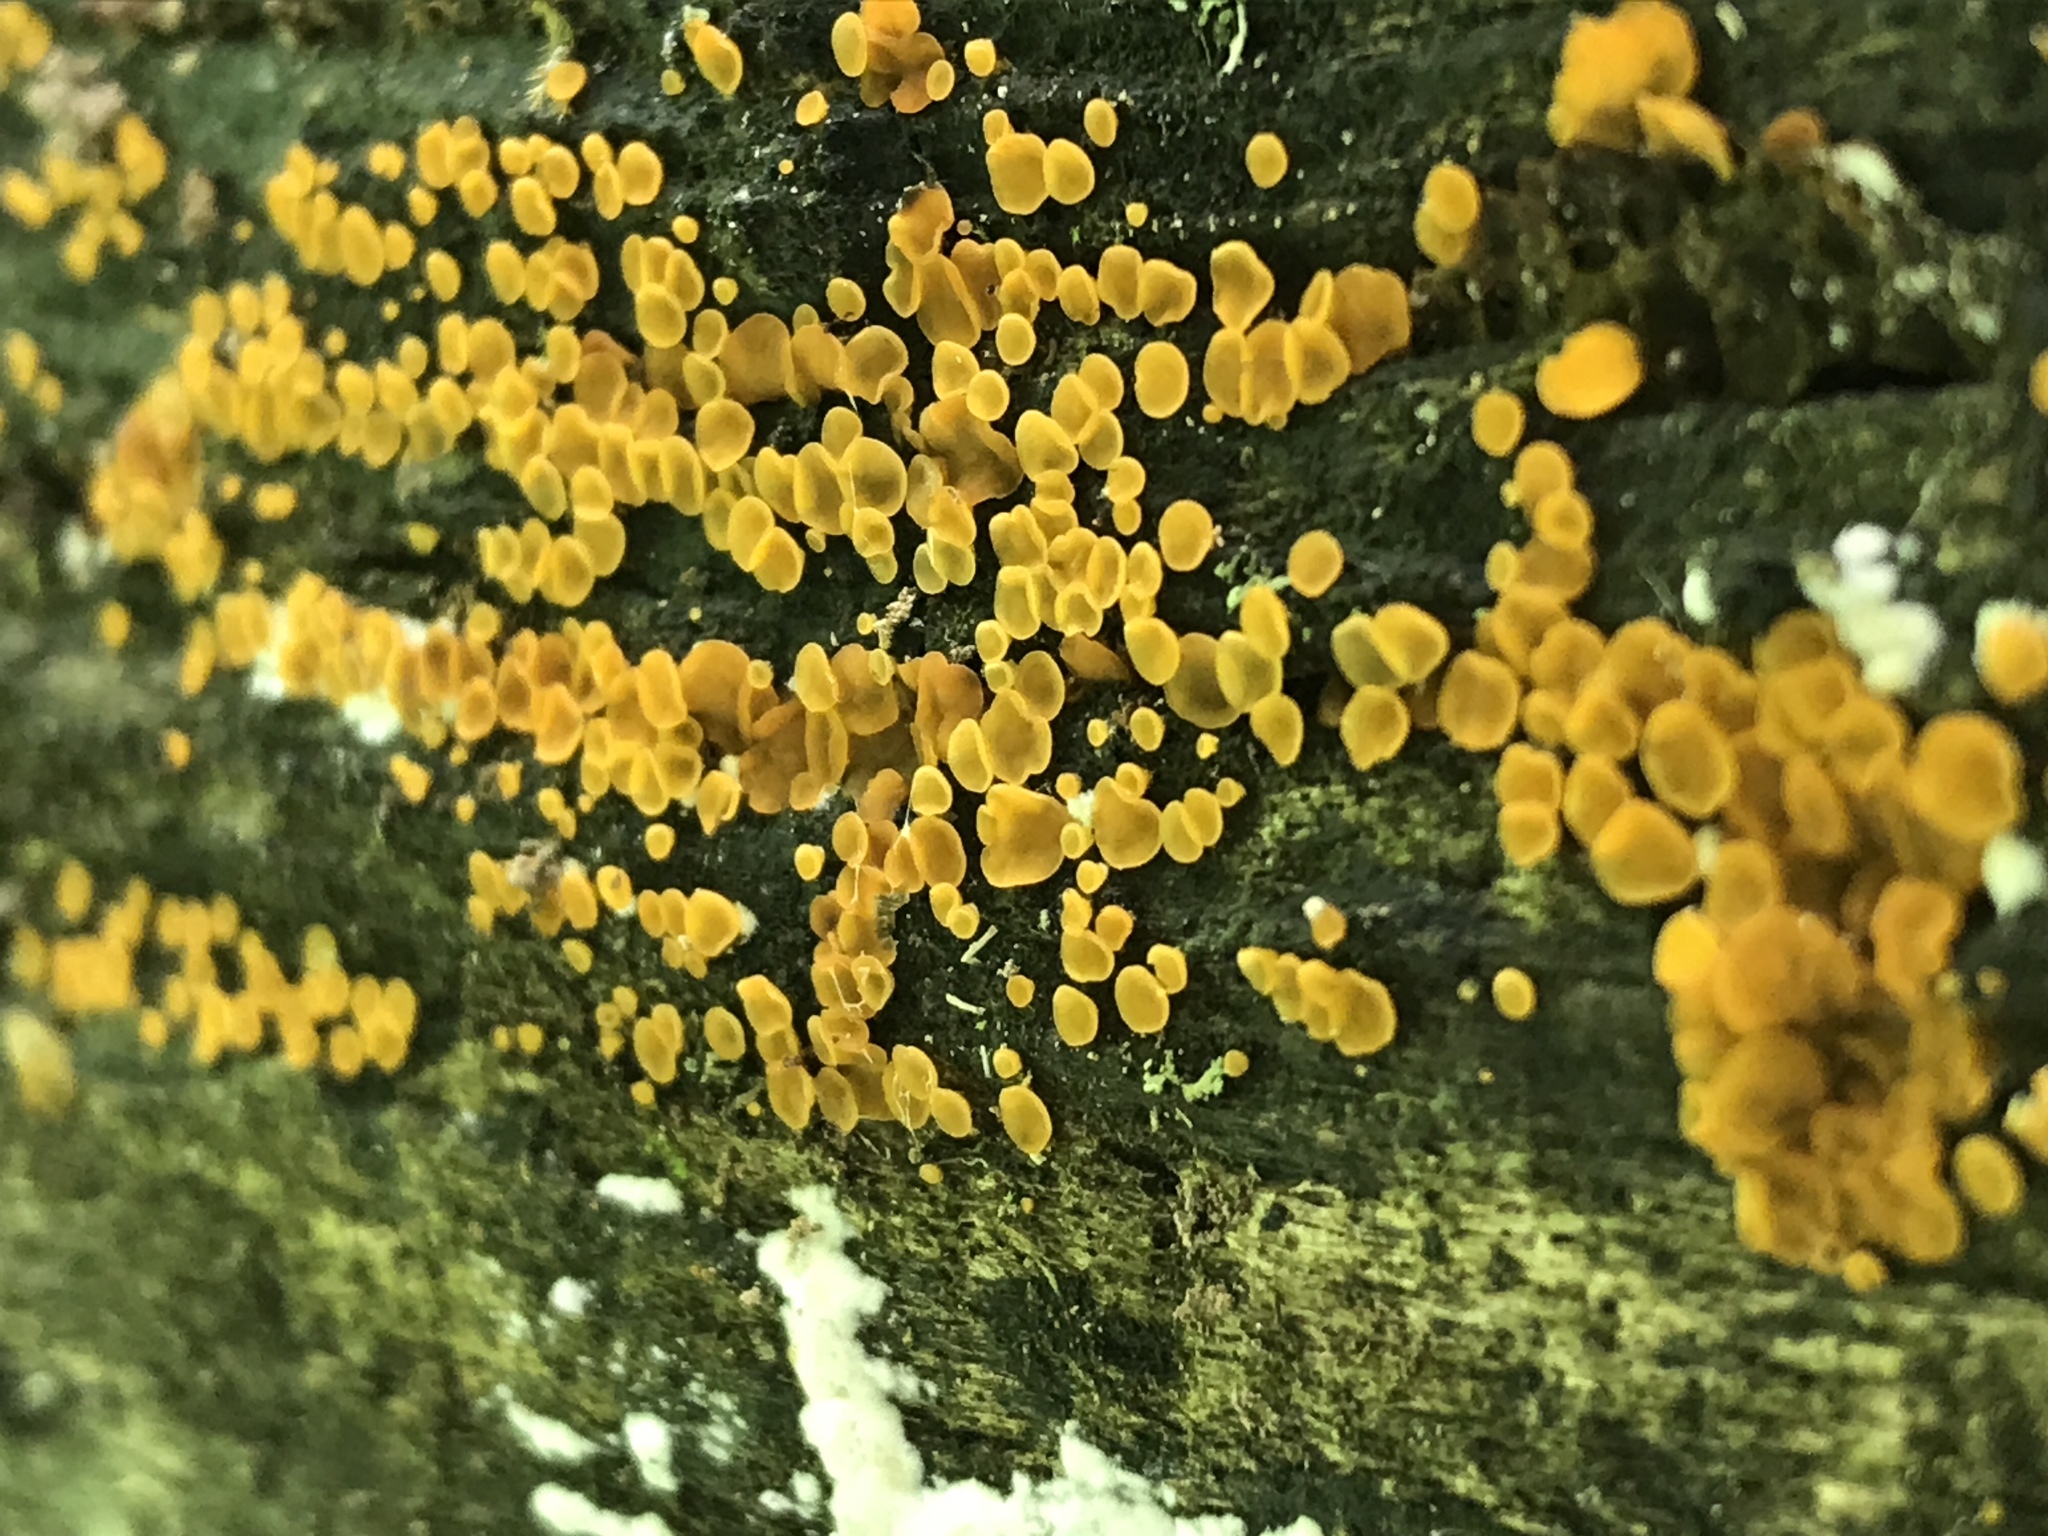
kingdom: Fungi
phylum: Ascomycota
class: Orbiliomycetes
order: Orbiliales
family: Orbiliaceae
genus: Orbilia
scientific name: Orbilia xanthostigma
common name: Common glasscup
